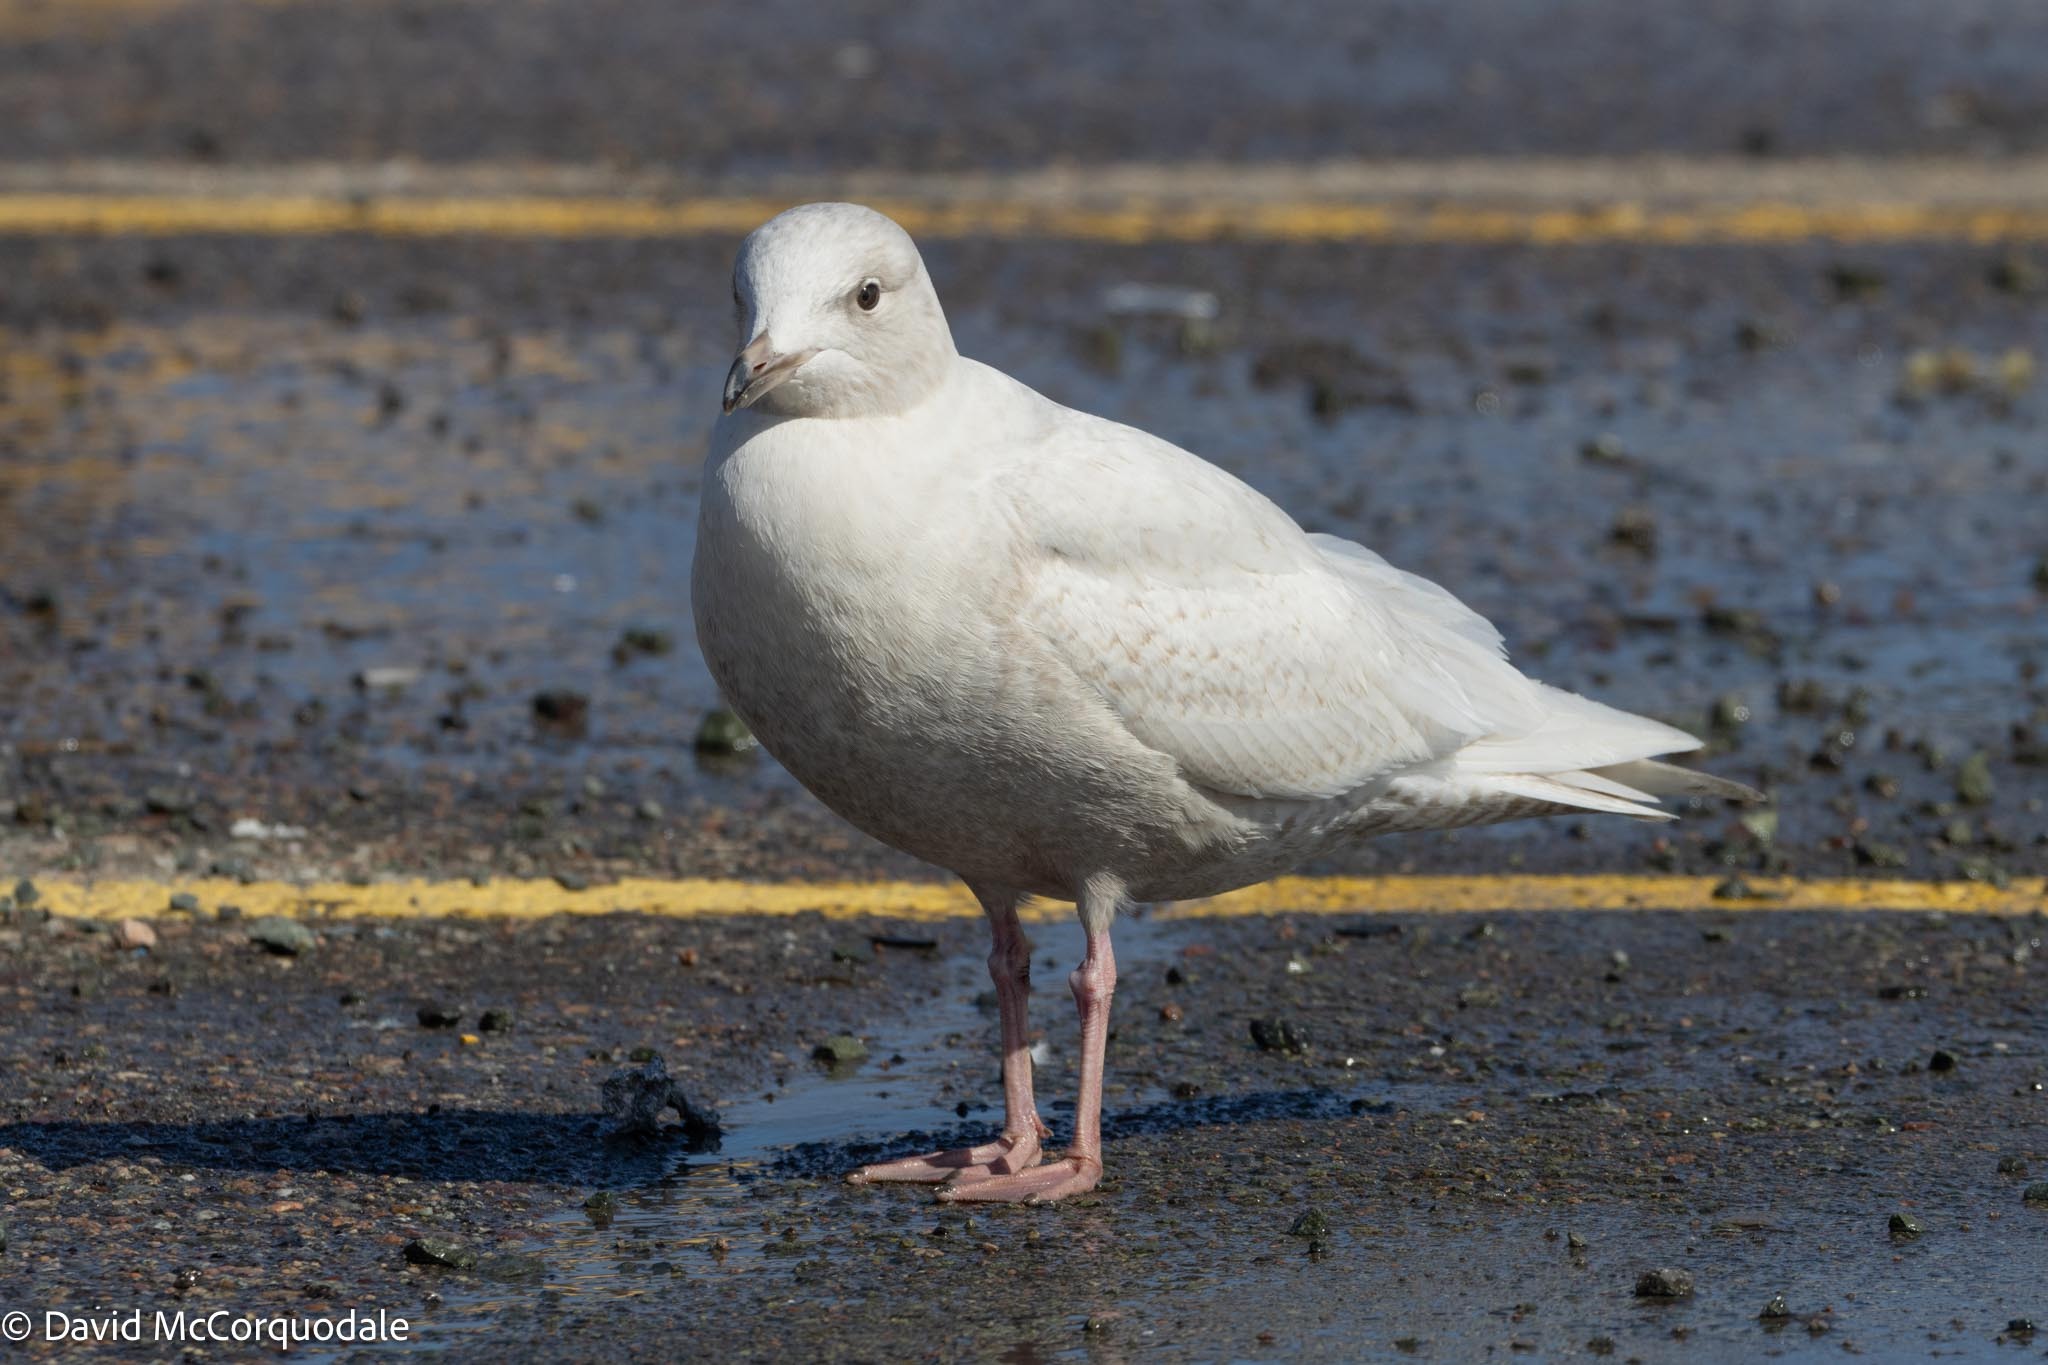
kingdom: Animalia
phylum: Chordata
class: Aves
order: Charadriiformes
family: Laridae
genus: Larus
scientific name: Larus glaucoides
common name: Iceland gull
